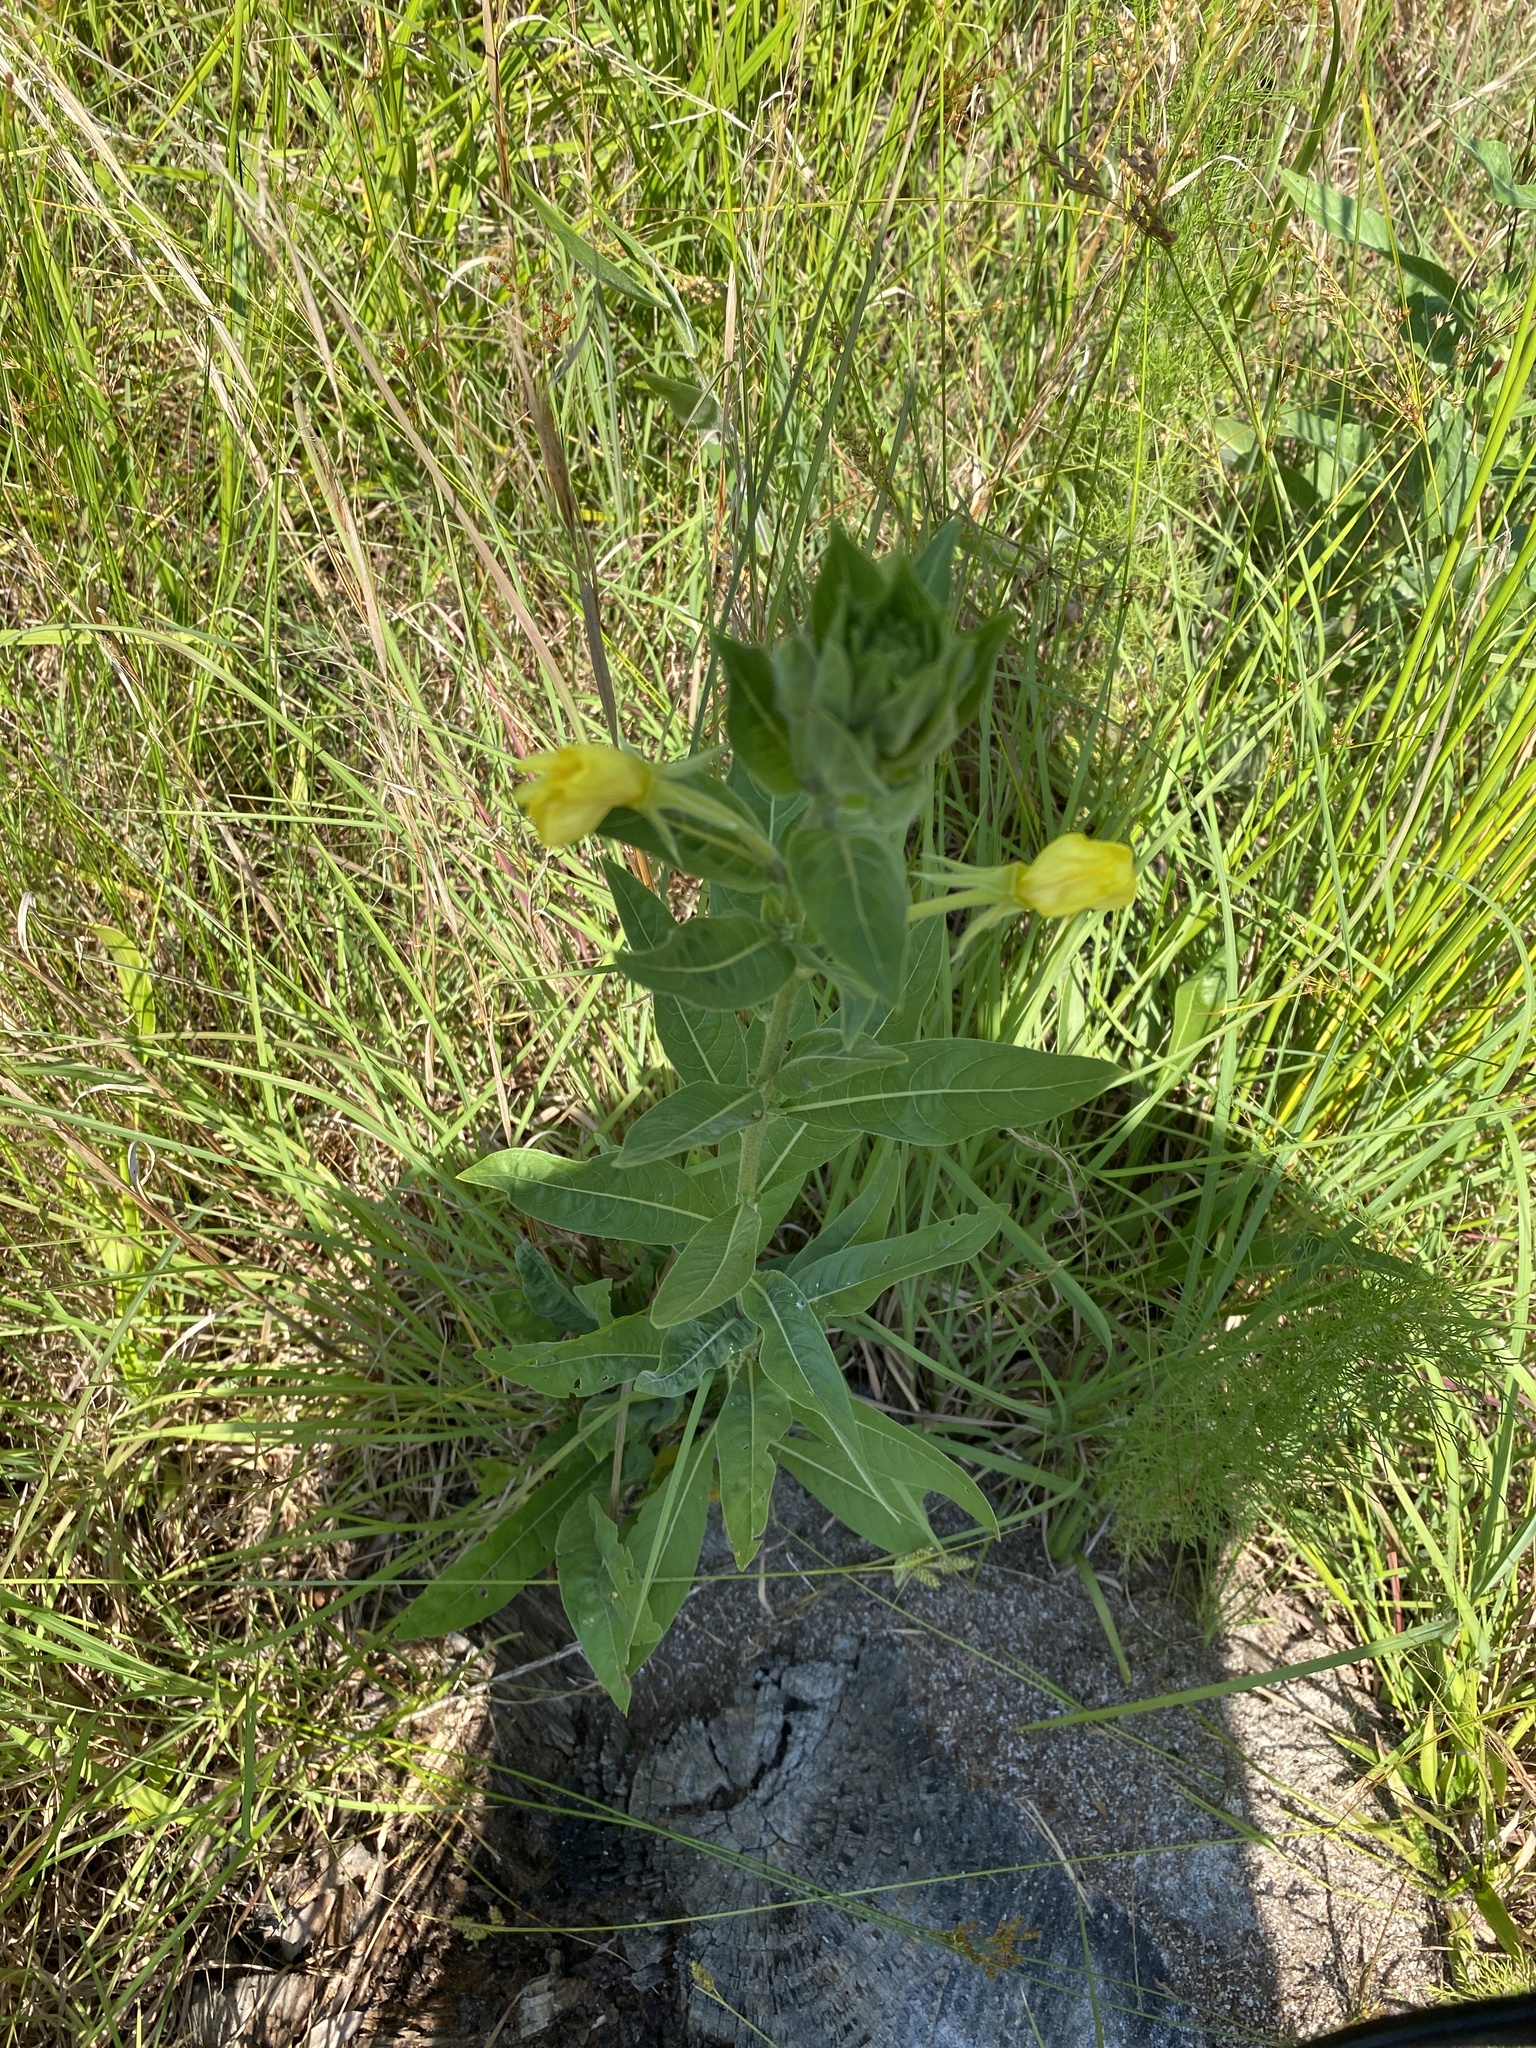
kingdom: Plantae
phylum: Tracheophyta
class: Magnoliopsida
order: Myrtales
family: Onagraceae
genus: Oenothera
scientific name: Oenothera biennis
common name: Common evening-primrose
